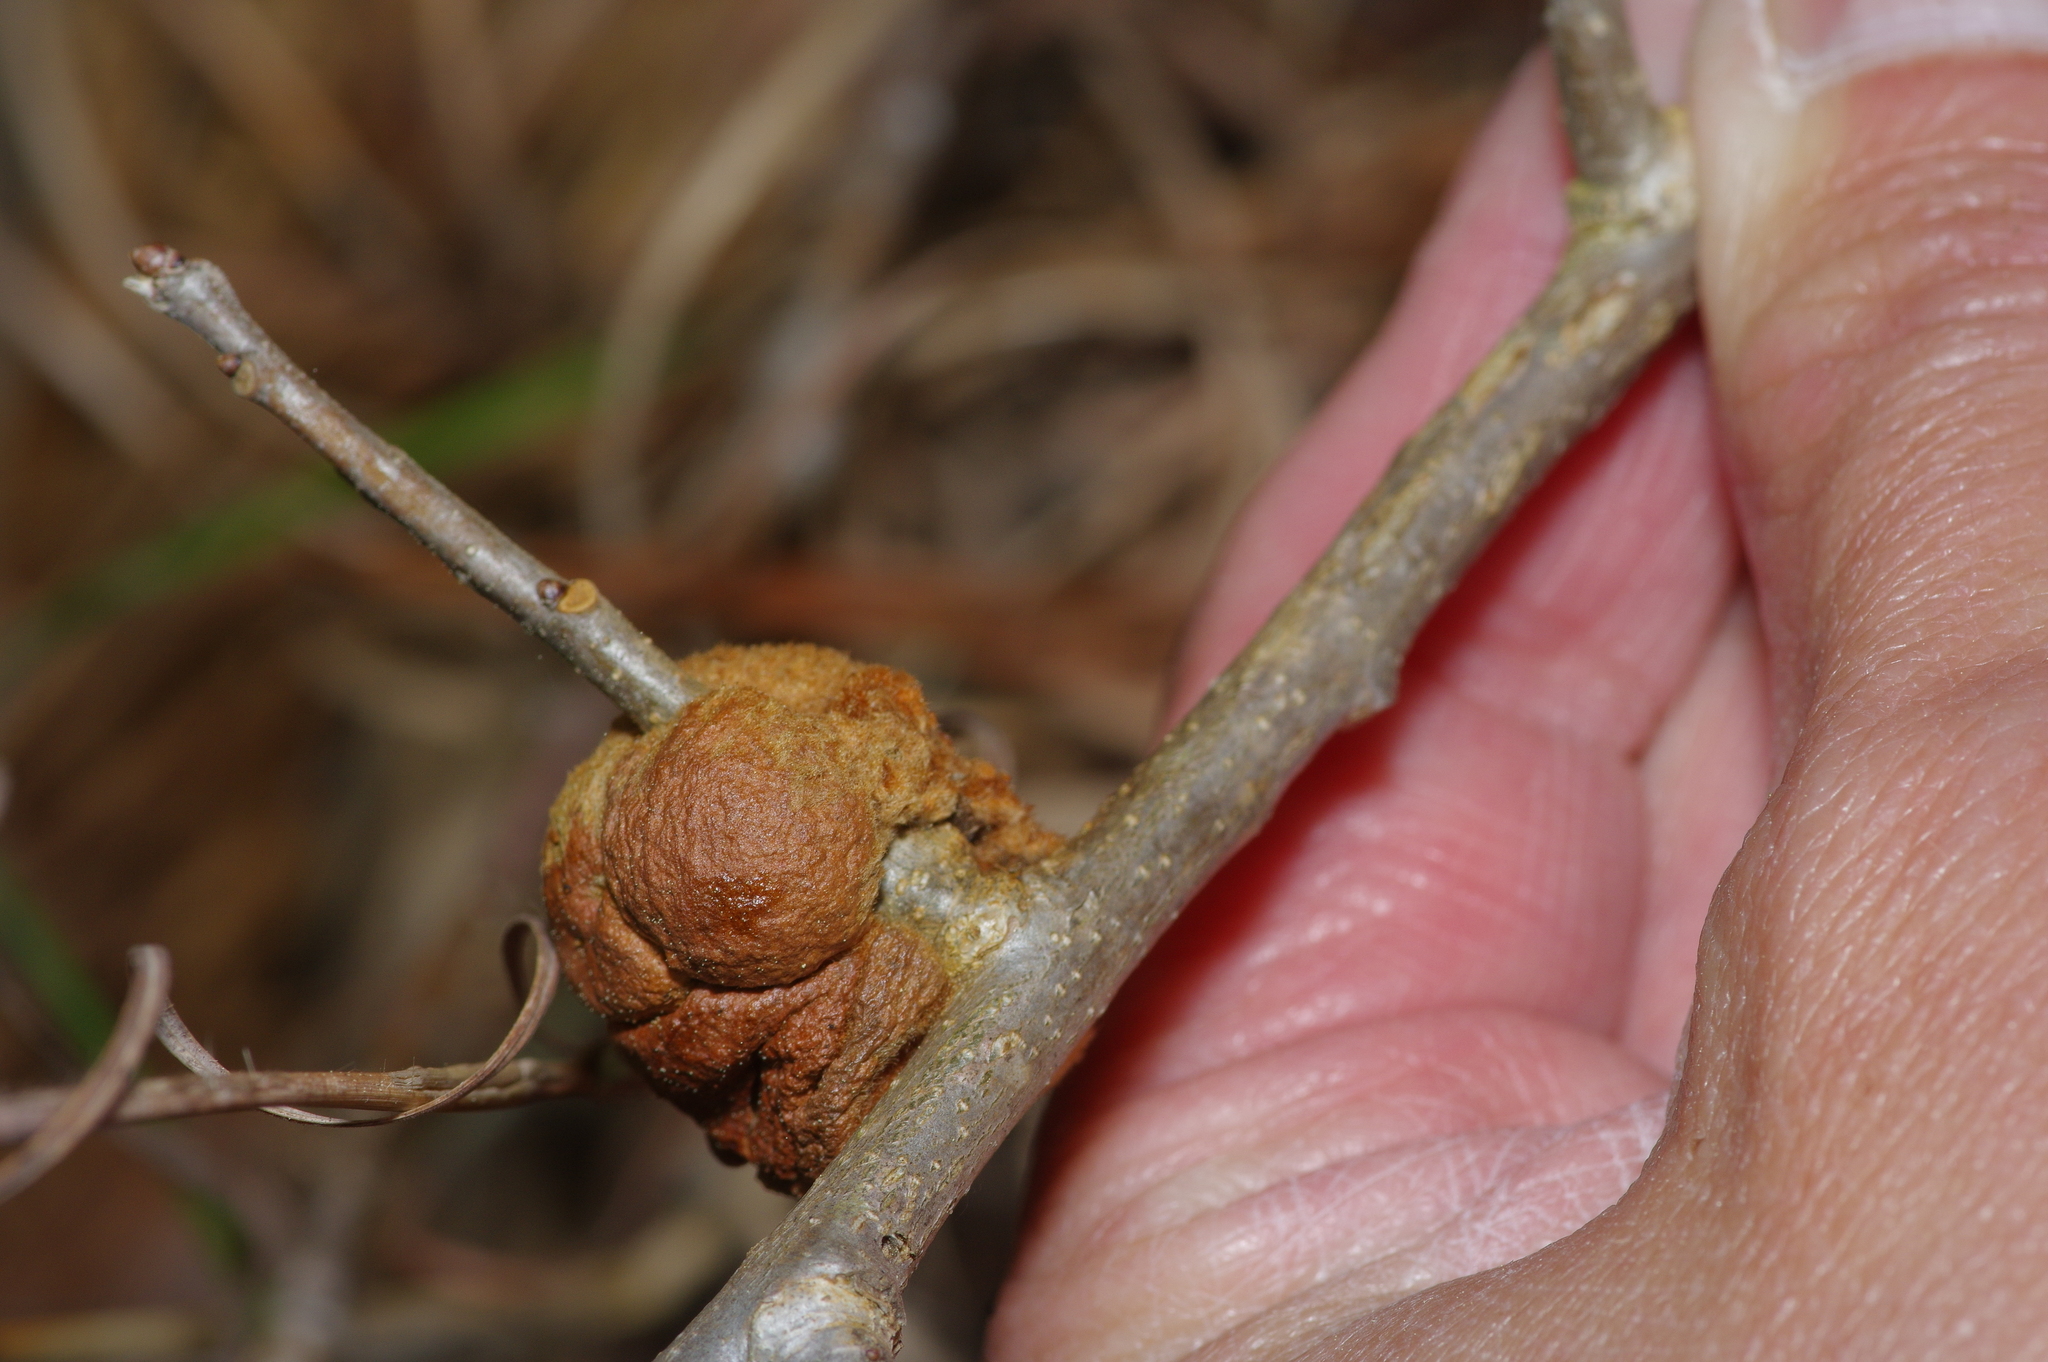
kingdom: Animalia
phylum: Arthropoda
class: Insecta
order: Hymenoptera
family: Cynipidae
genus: Disholcaspis
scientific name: Disholcaspis
